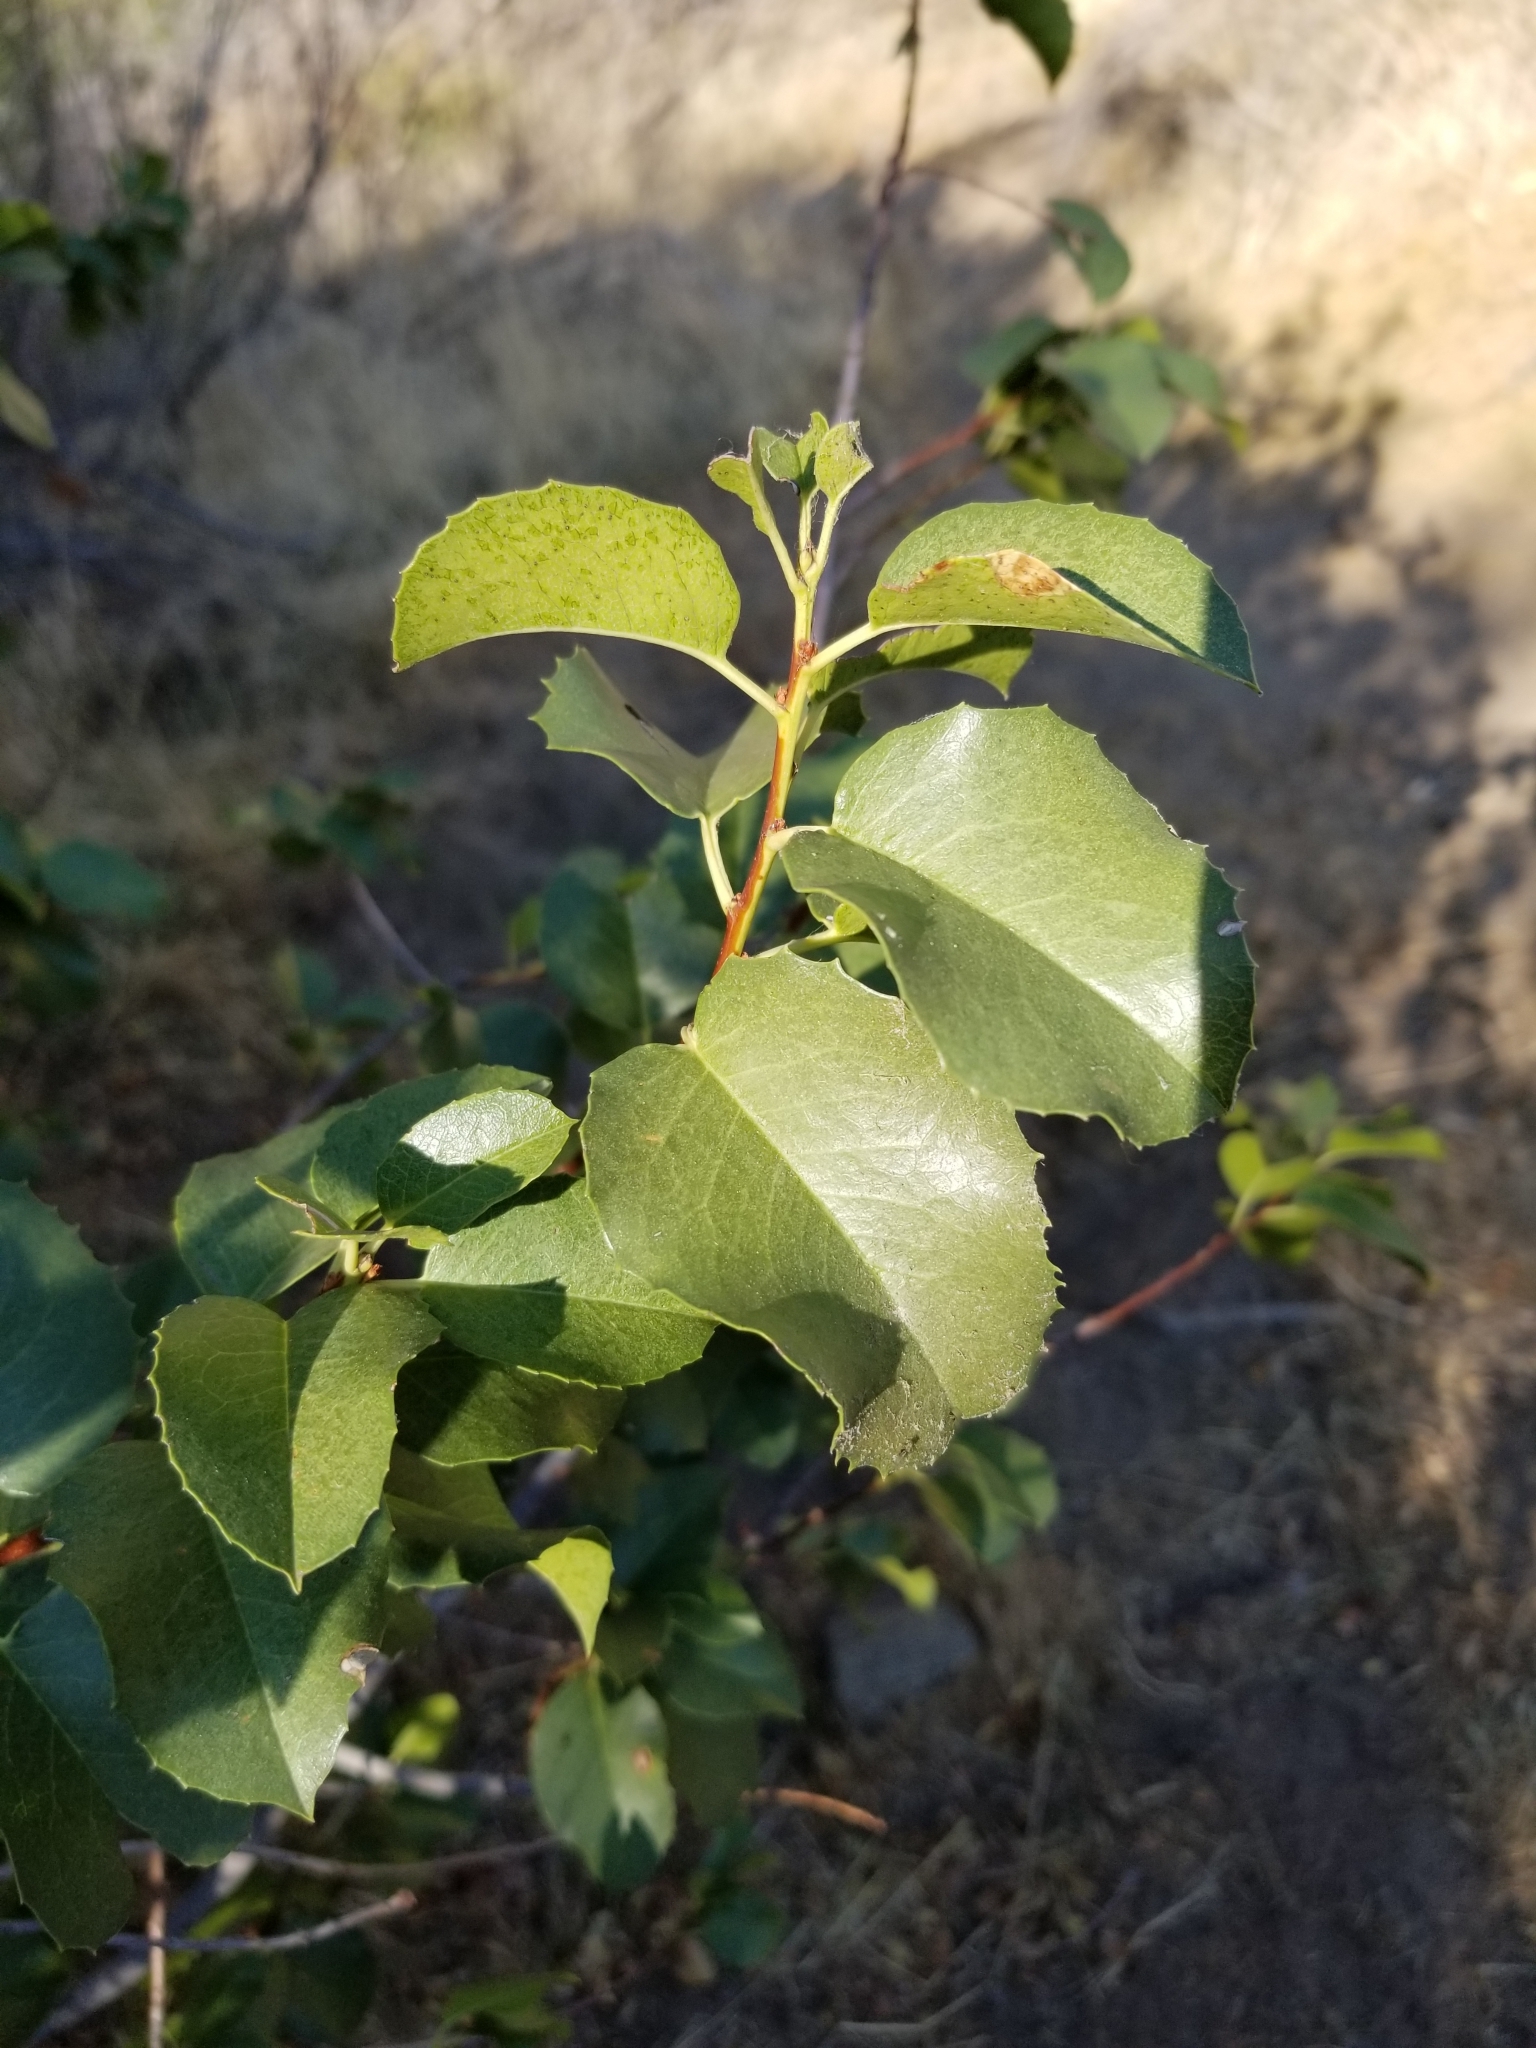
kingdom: Plantae
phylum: Tracheophyta
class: Magnoliopsida
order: Rosales
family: Rosaceae
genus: Prunus
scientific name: Prunus ilicifolia
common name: Hollyleaf cherry
